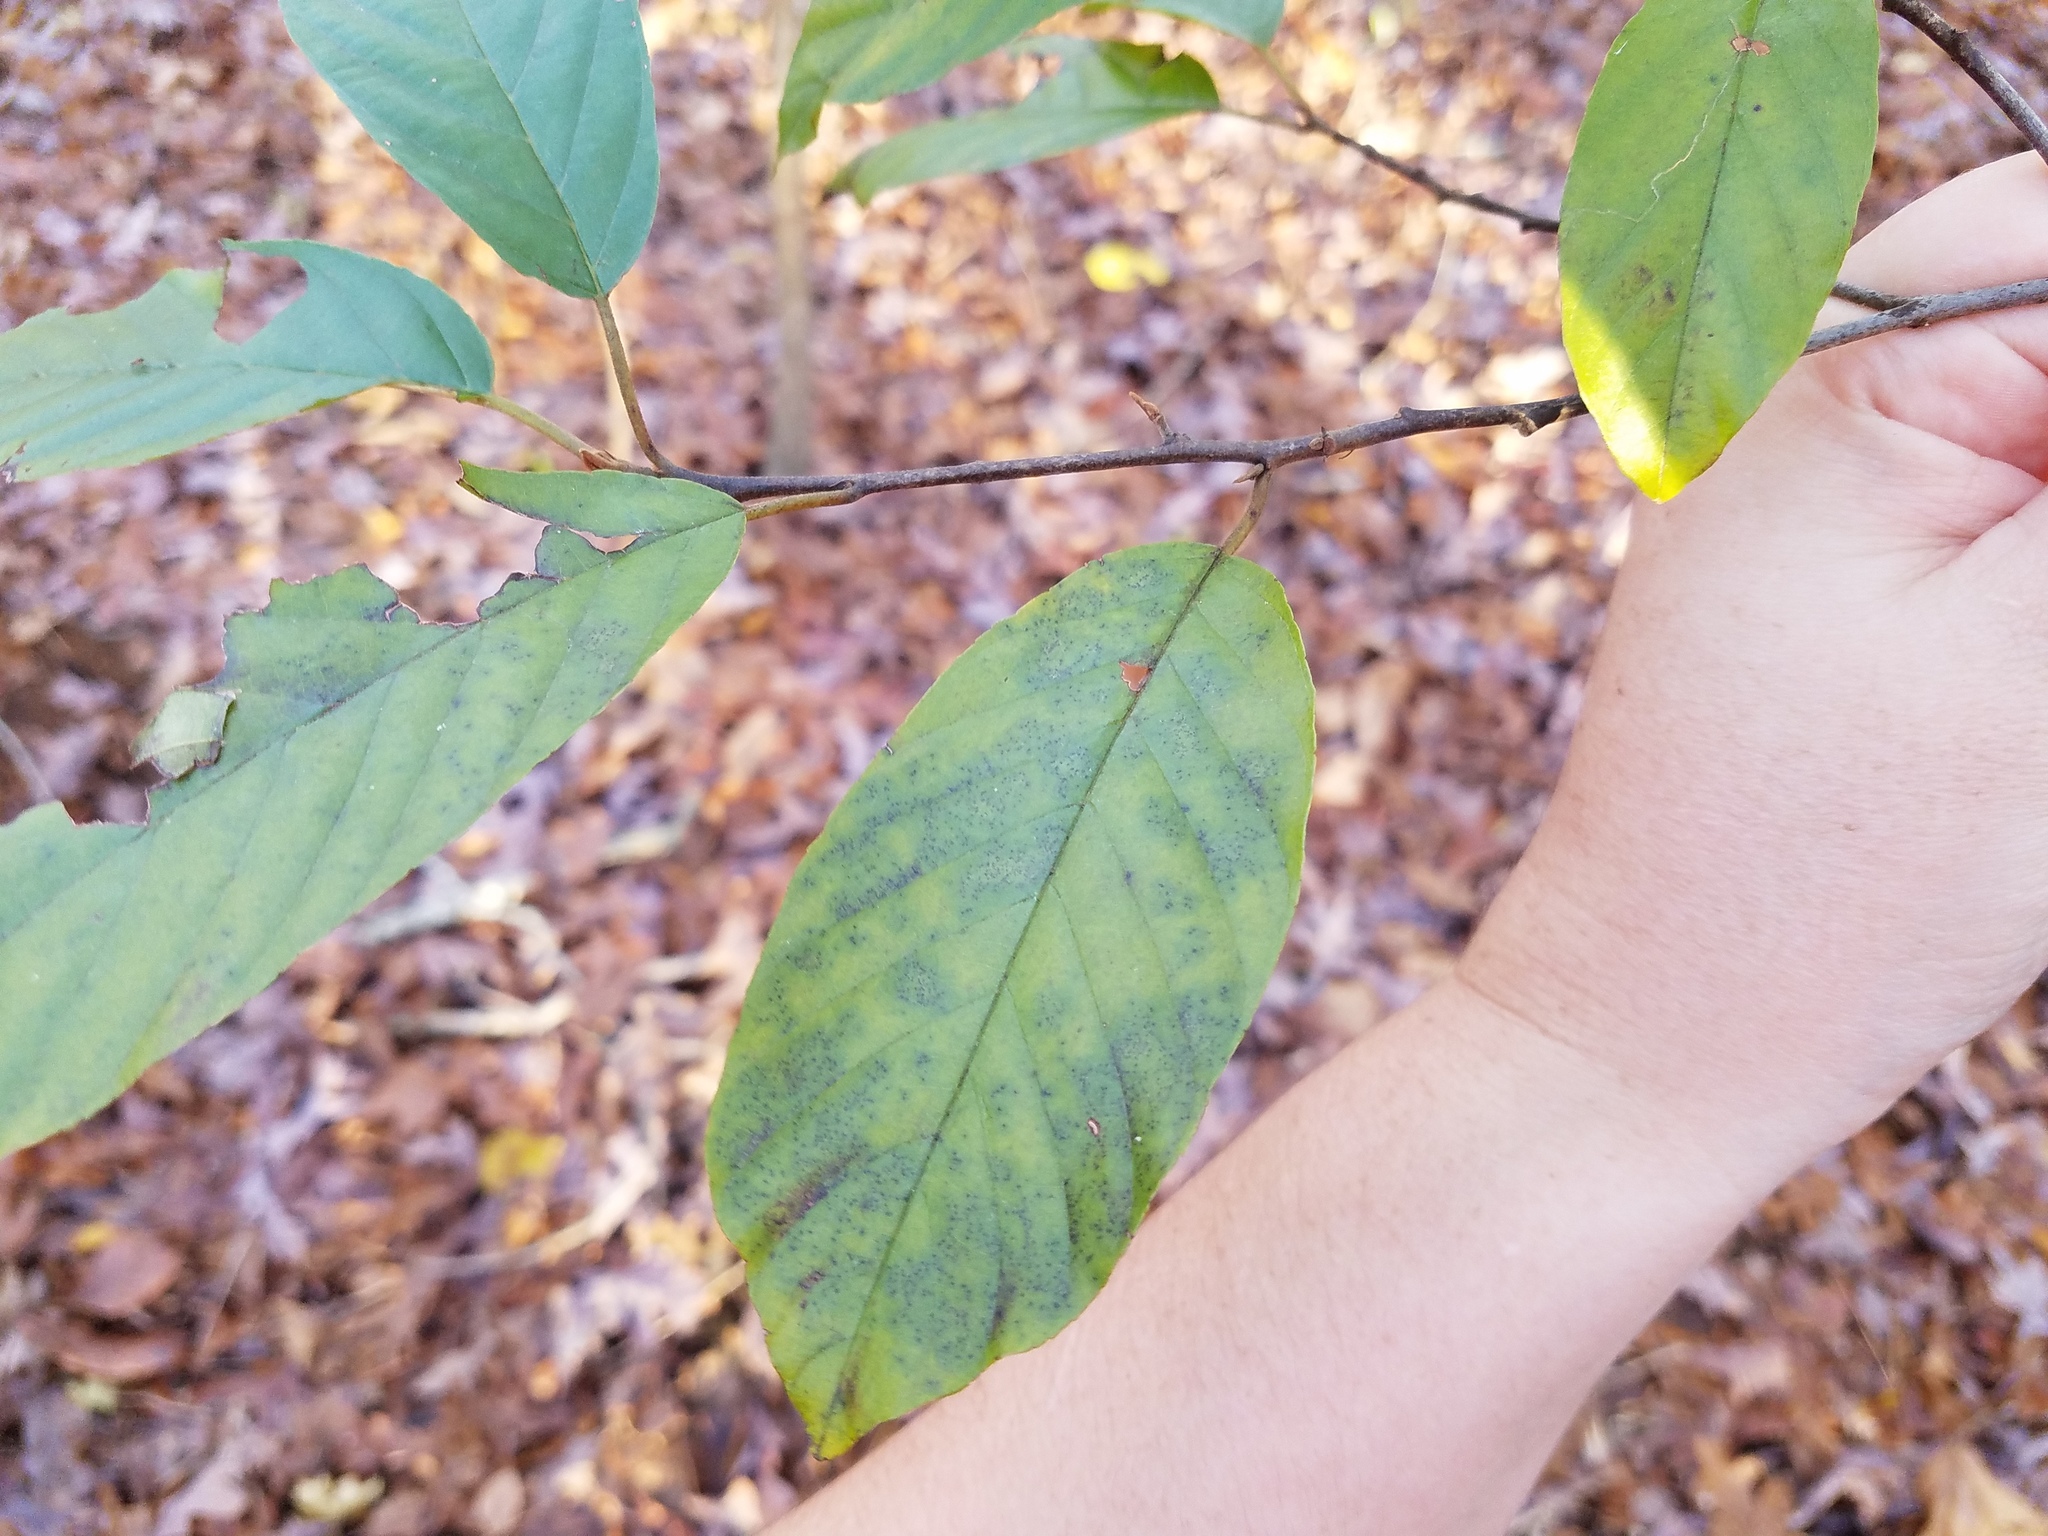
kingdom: Plantae
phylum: Tracheophyta
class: Magnoliopsida
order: Rosales
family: Rhamnaceae
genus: Frangula
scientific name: Frangula caroliniana
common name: Carolina buckthorn
